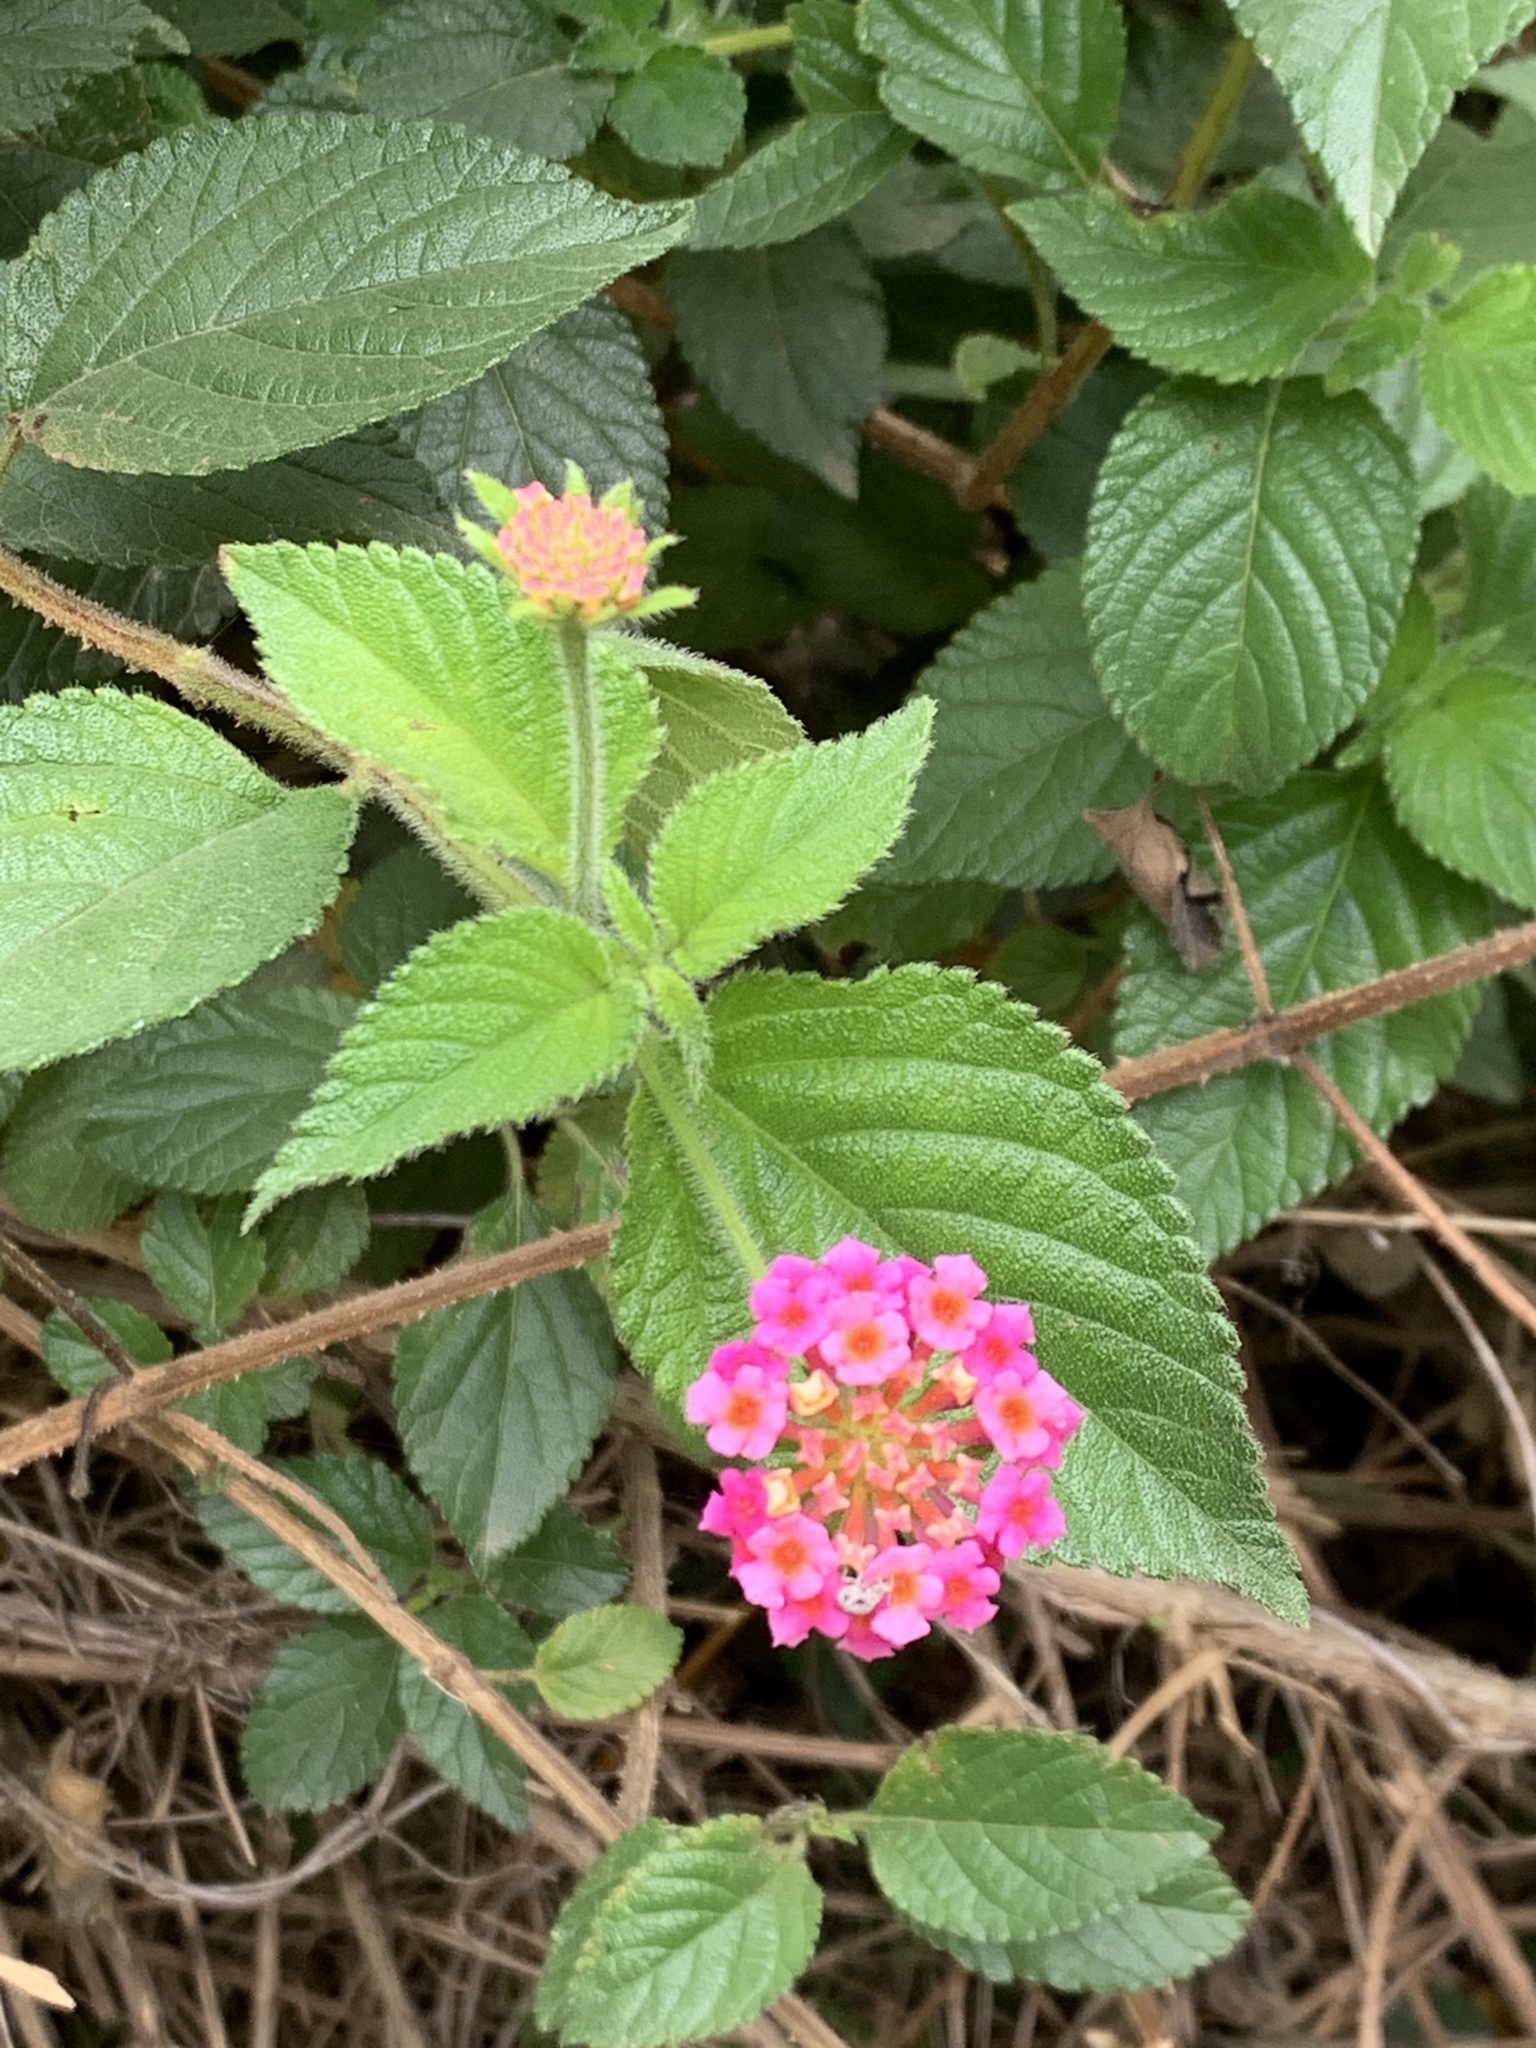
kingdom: Plantae
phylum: Tracheophyta
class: Magnoliopsida
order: Lamiales
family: Verbenaceae
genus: Lantana
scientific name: Lantana camara
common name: Lantana
